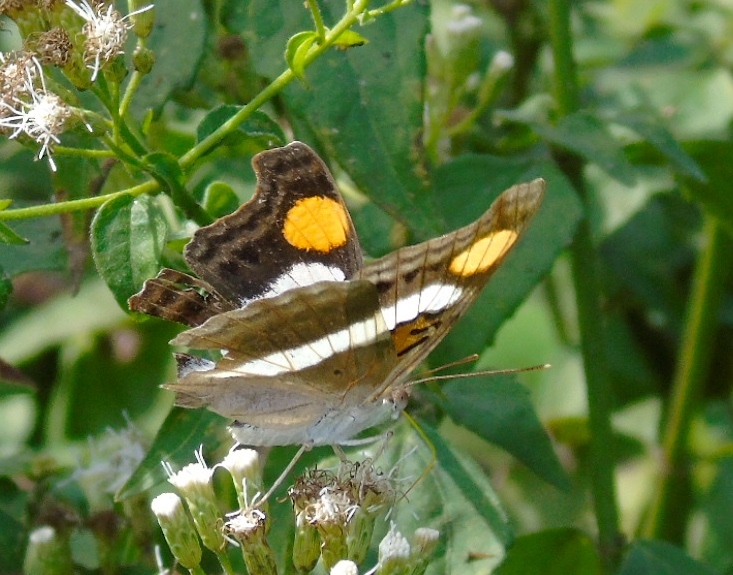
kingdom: Animalia
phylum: Arthropoda
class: Insecta
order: Lepidoptera
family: Nymphalidae
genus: Doxocopa
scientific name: Doxocopa laure
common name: Silver emperor
